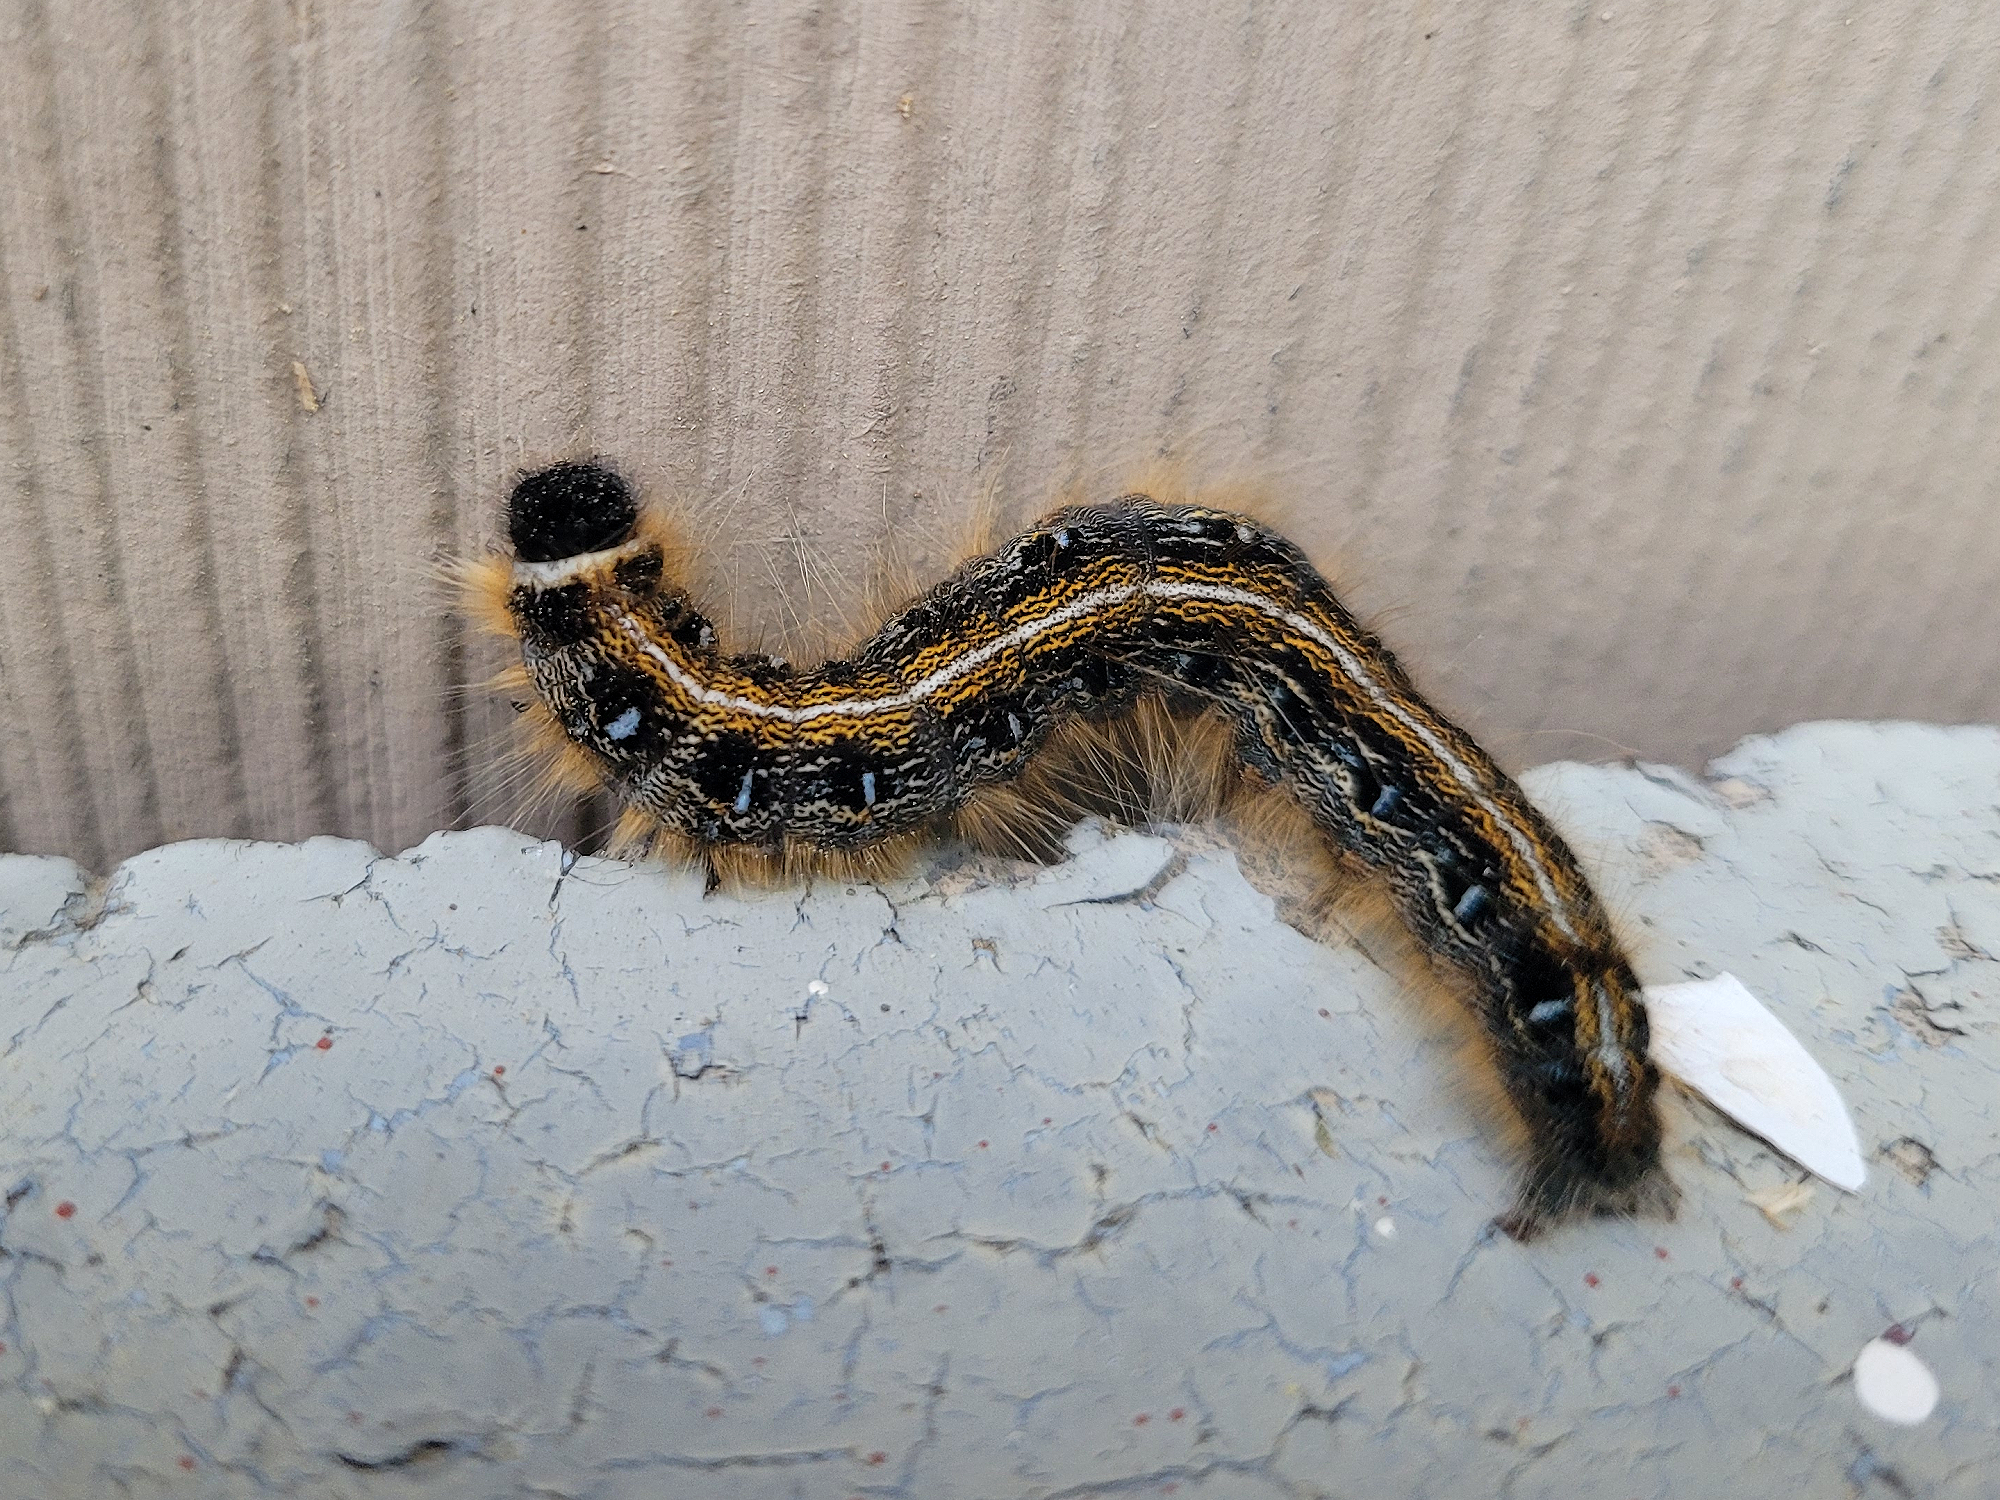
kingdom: Animalia
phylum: Arthropoda
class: Insecta
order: Lepidoptera
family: Lasiocampidae
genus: Malacosoma
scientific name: Malacosoma americana
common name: Eastern tent caterpillar moth
